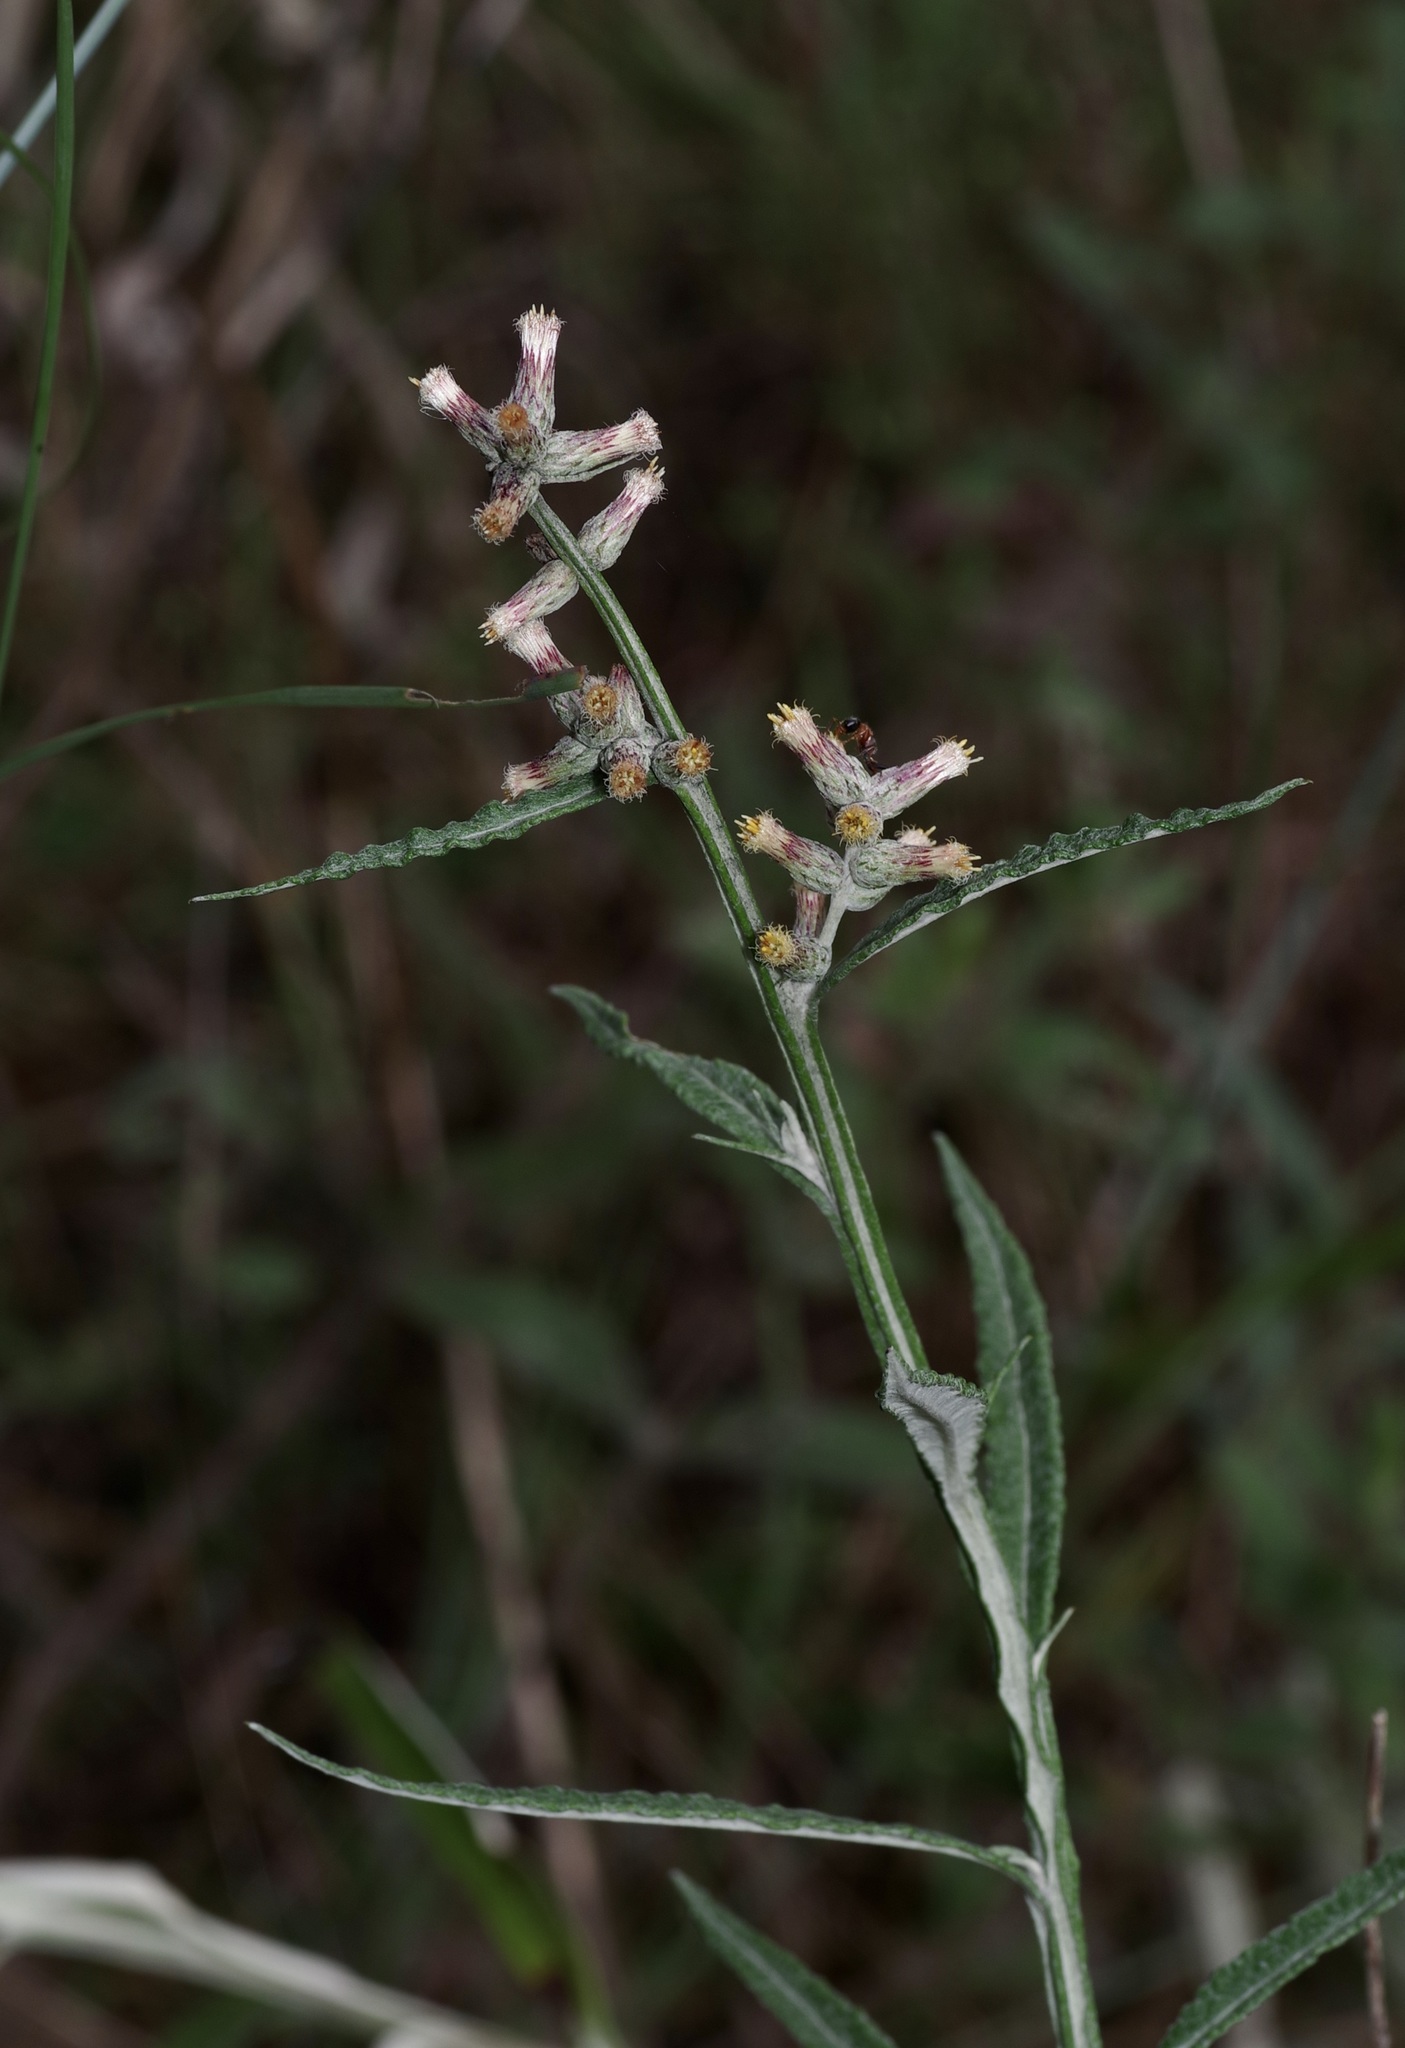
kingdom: Plantae
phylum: Tracheophyta
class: Magnoliopsida
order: Asterales
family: Asteraceae
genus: Pterocaulon
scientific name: Pterocaulon virgatum
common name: Wand blackroot
